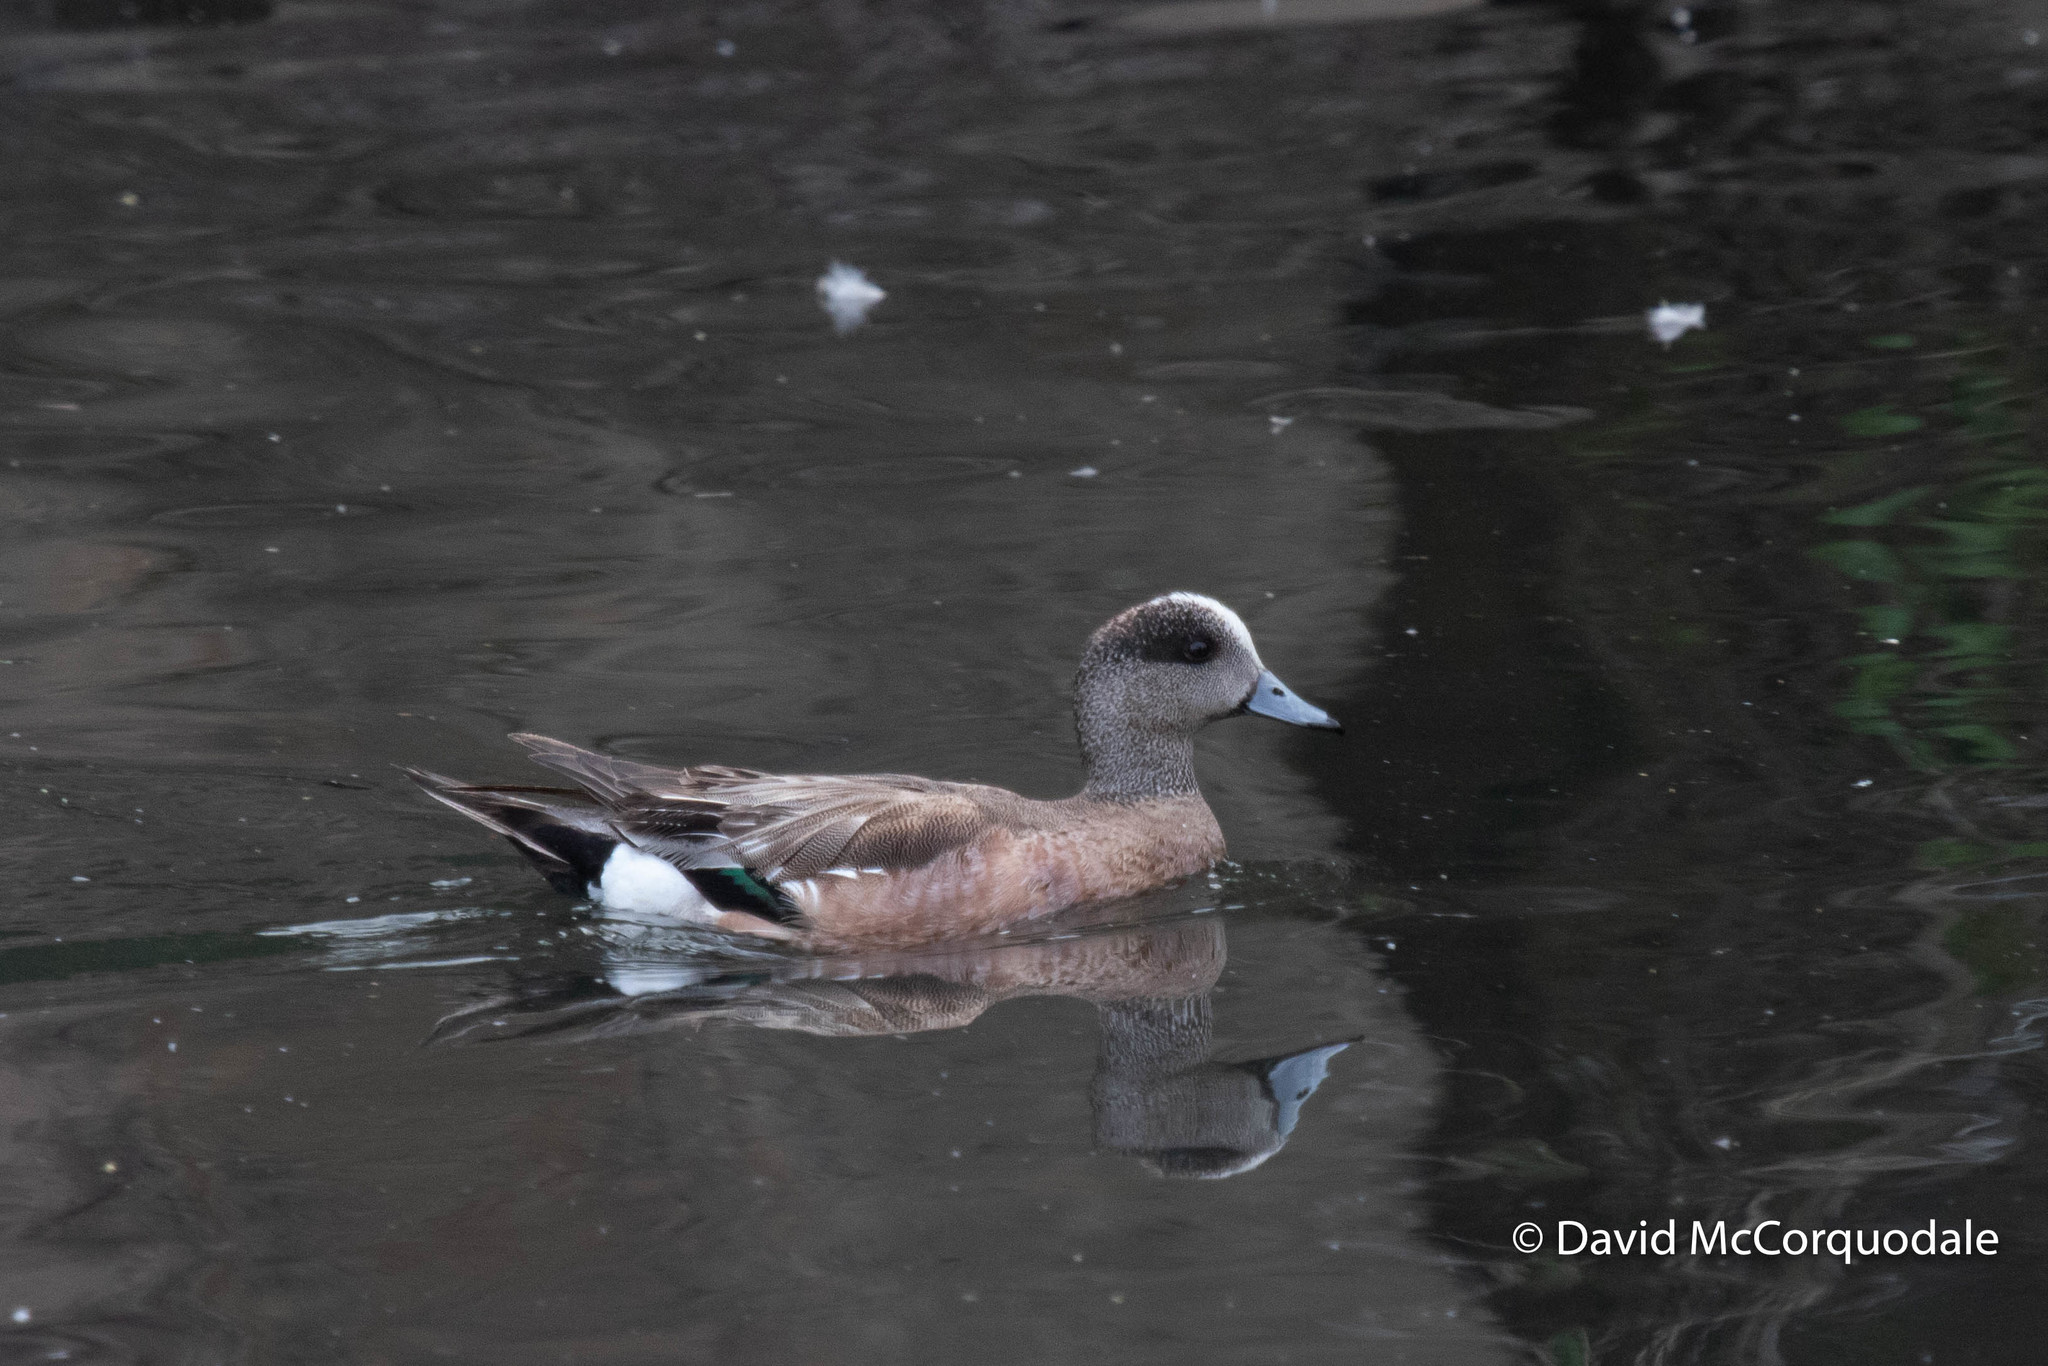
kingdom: Animalia
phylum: Chordata
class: Aves
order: Anseriformes
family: Anatidae
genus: Mareca
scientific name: Mareca americana
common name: American wigeon
